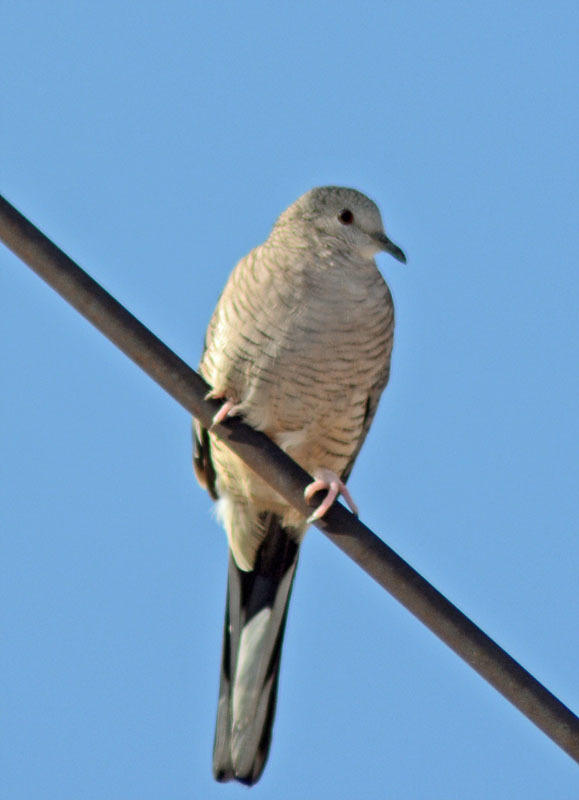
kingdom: Animalia
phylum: Chordata
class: Aves
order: Columbiformes
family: Columbidae
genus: Columbina
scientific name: Columbina inca
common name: Inca dove
